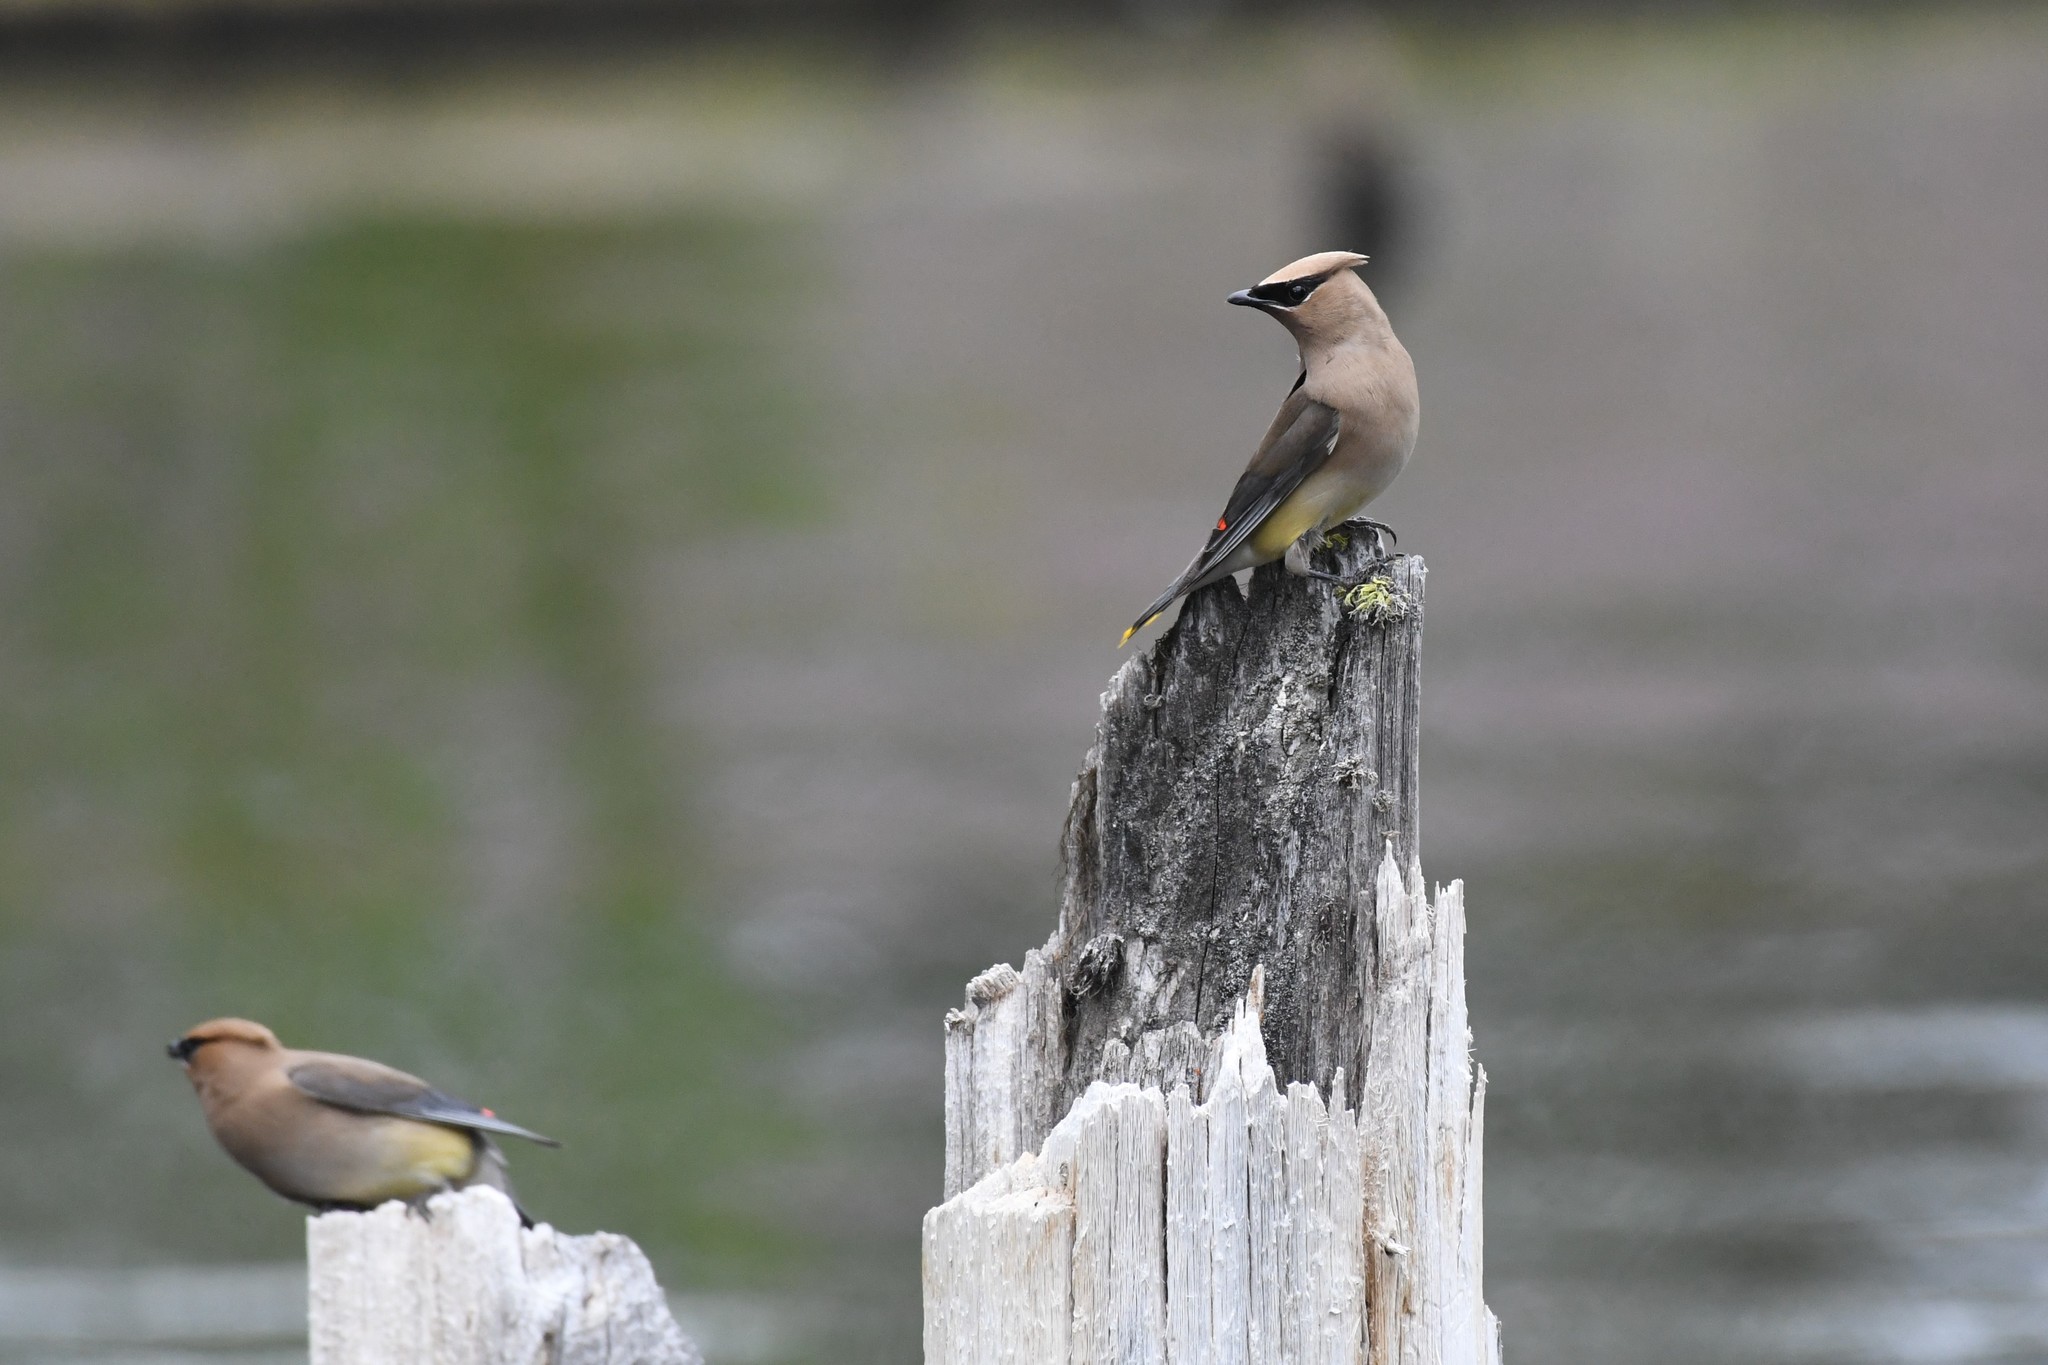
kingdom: Animalia
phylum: Chordata
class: Aves
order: Passeriformes
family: Bombycillidae
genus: Bombycilla
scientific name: Bombycilla cedrorum
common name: Cedar waxwing
